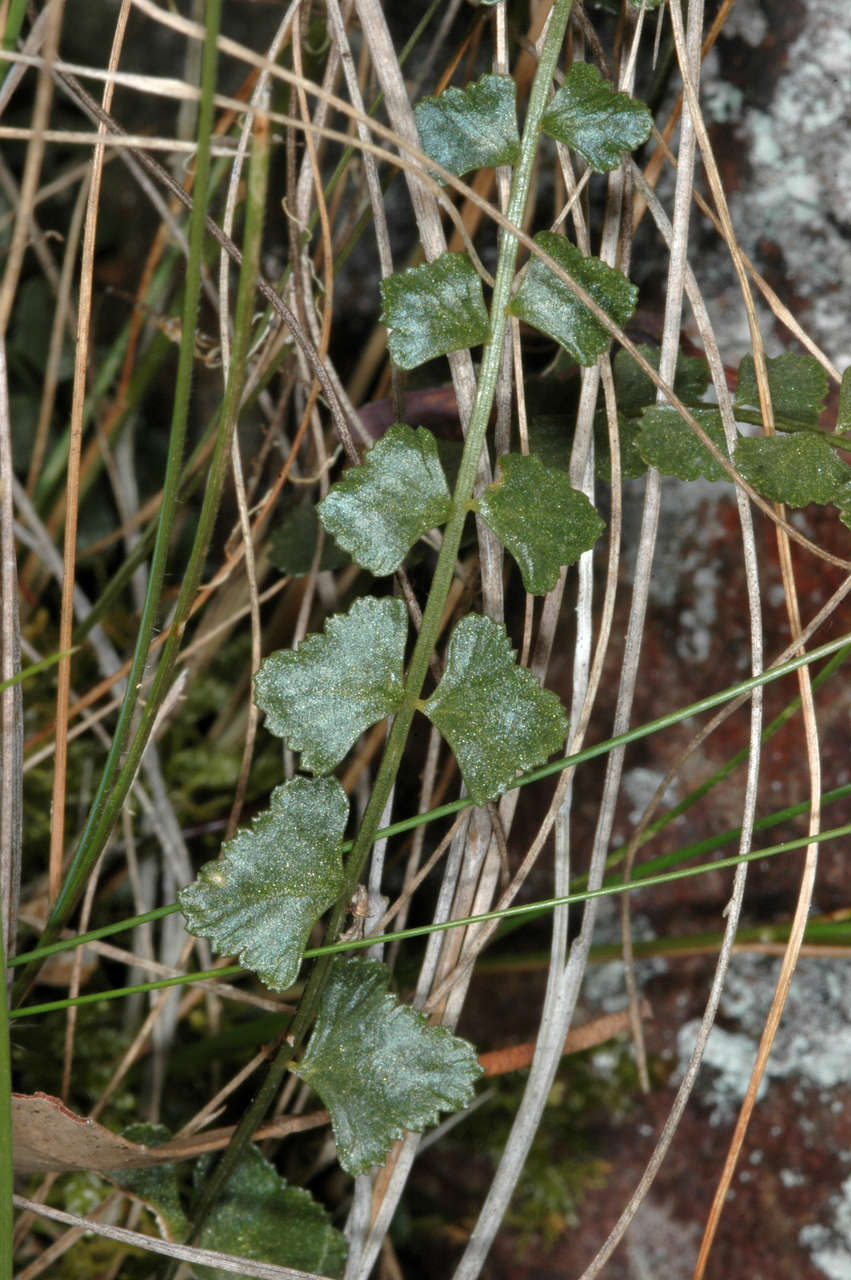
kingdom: Plantae
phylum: Tracheophyta
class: Polypodiopsida
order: Polypodiales
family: Aspleniaceae
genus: Asplenium
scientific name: Asplenium flabellifolium
